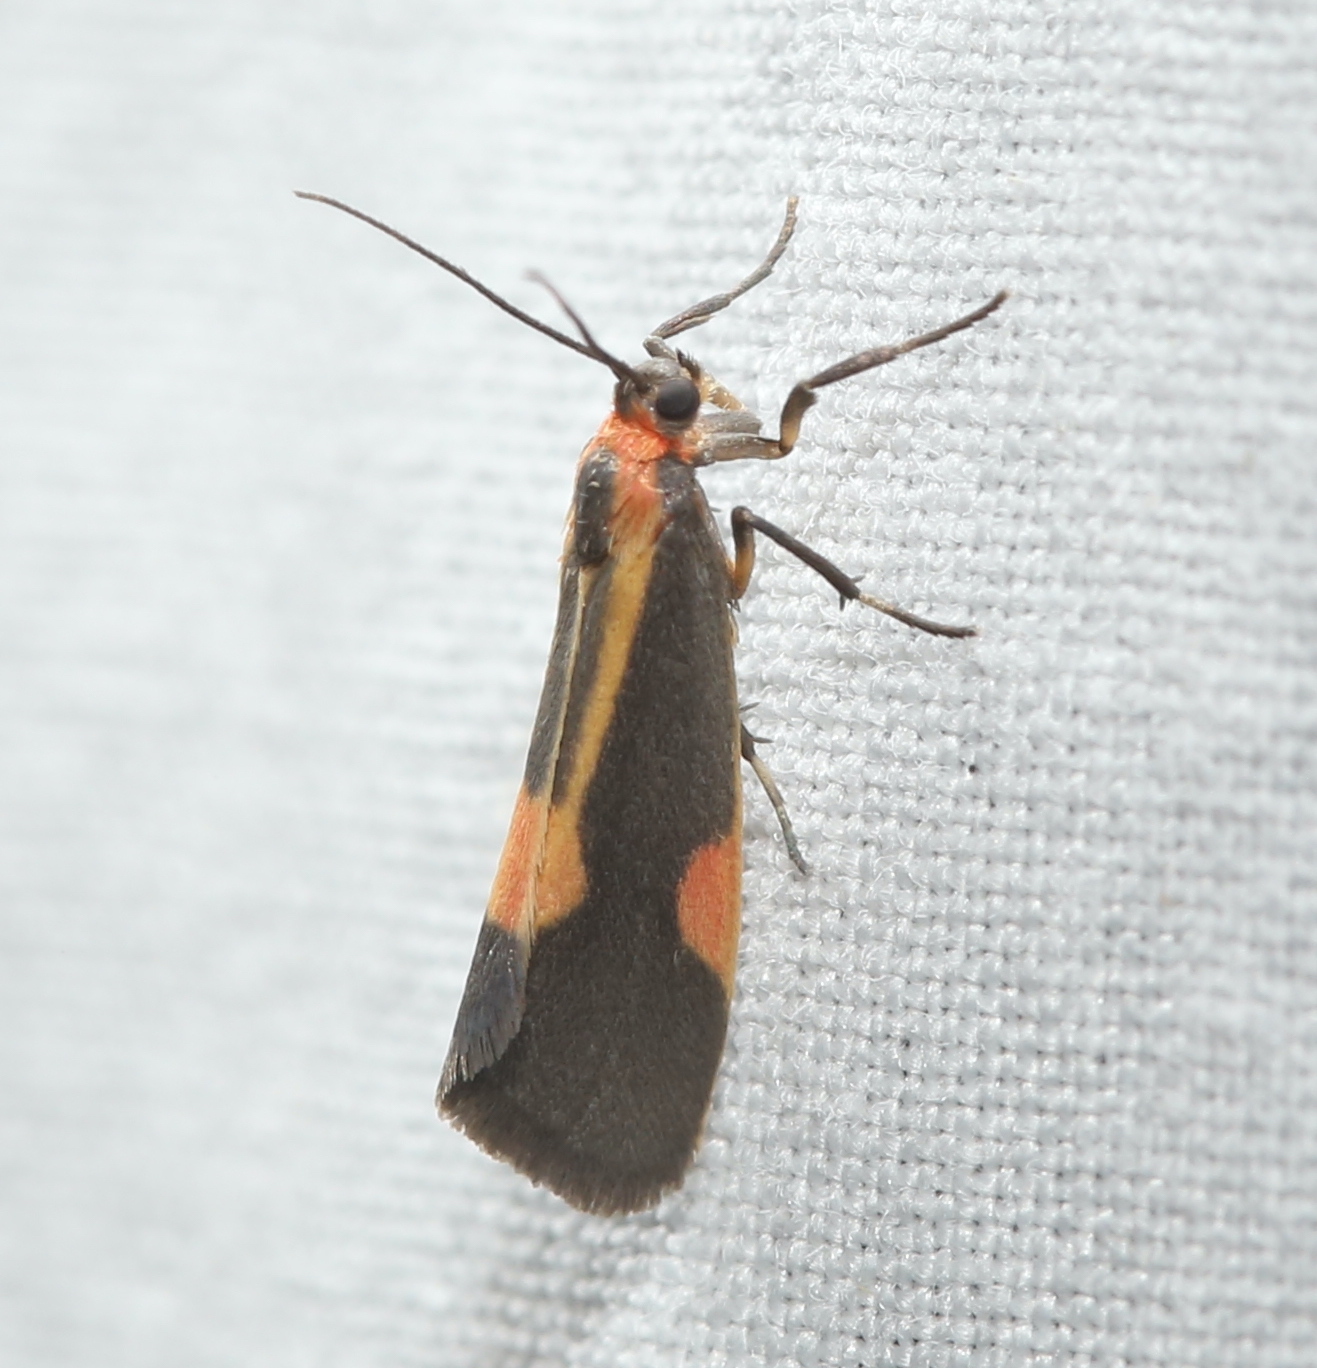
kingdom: Animalia
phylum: Arthropoda
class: Insecta
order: Lepidoptera
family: Erebidae
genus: Cisthene
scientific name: Cisthene packardii
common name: Packard's lichen moth
